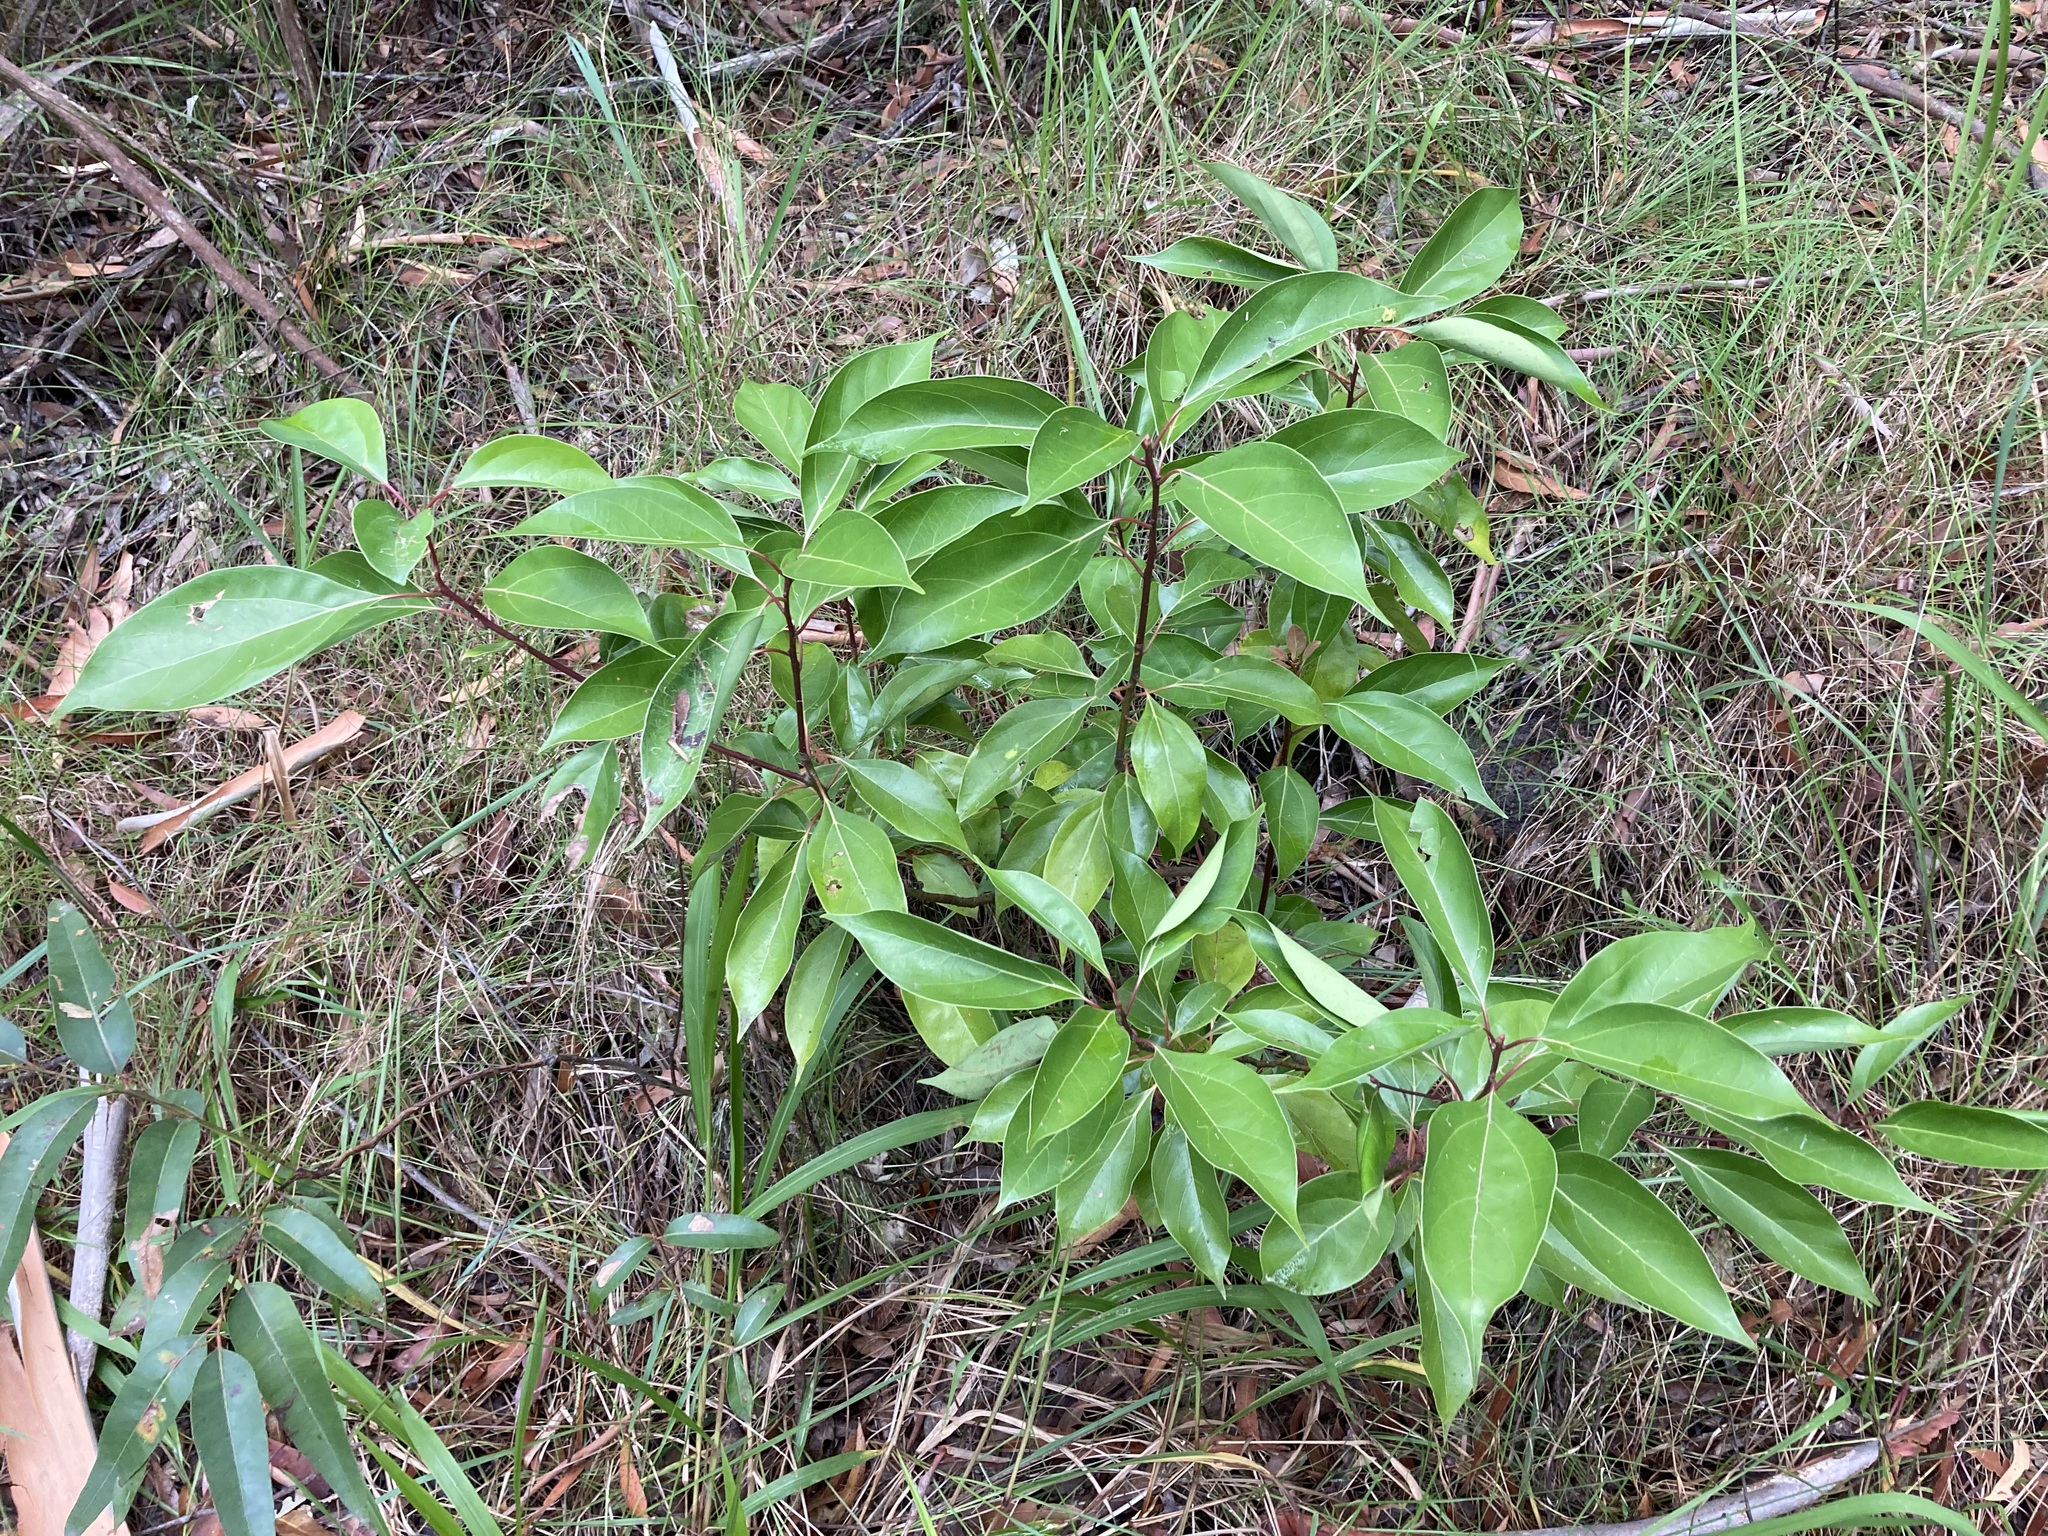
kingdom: Plantae
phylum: Tracheophyta
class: Magnoliopsida
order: Laurales
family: Lauraceae
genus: Cinnamomum
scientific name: Cinnamomum camphora
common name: Camphortree
